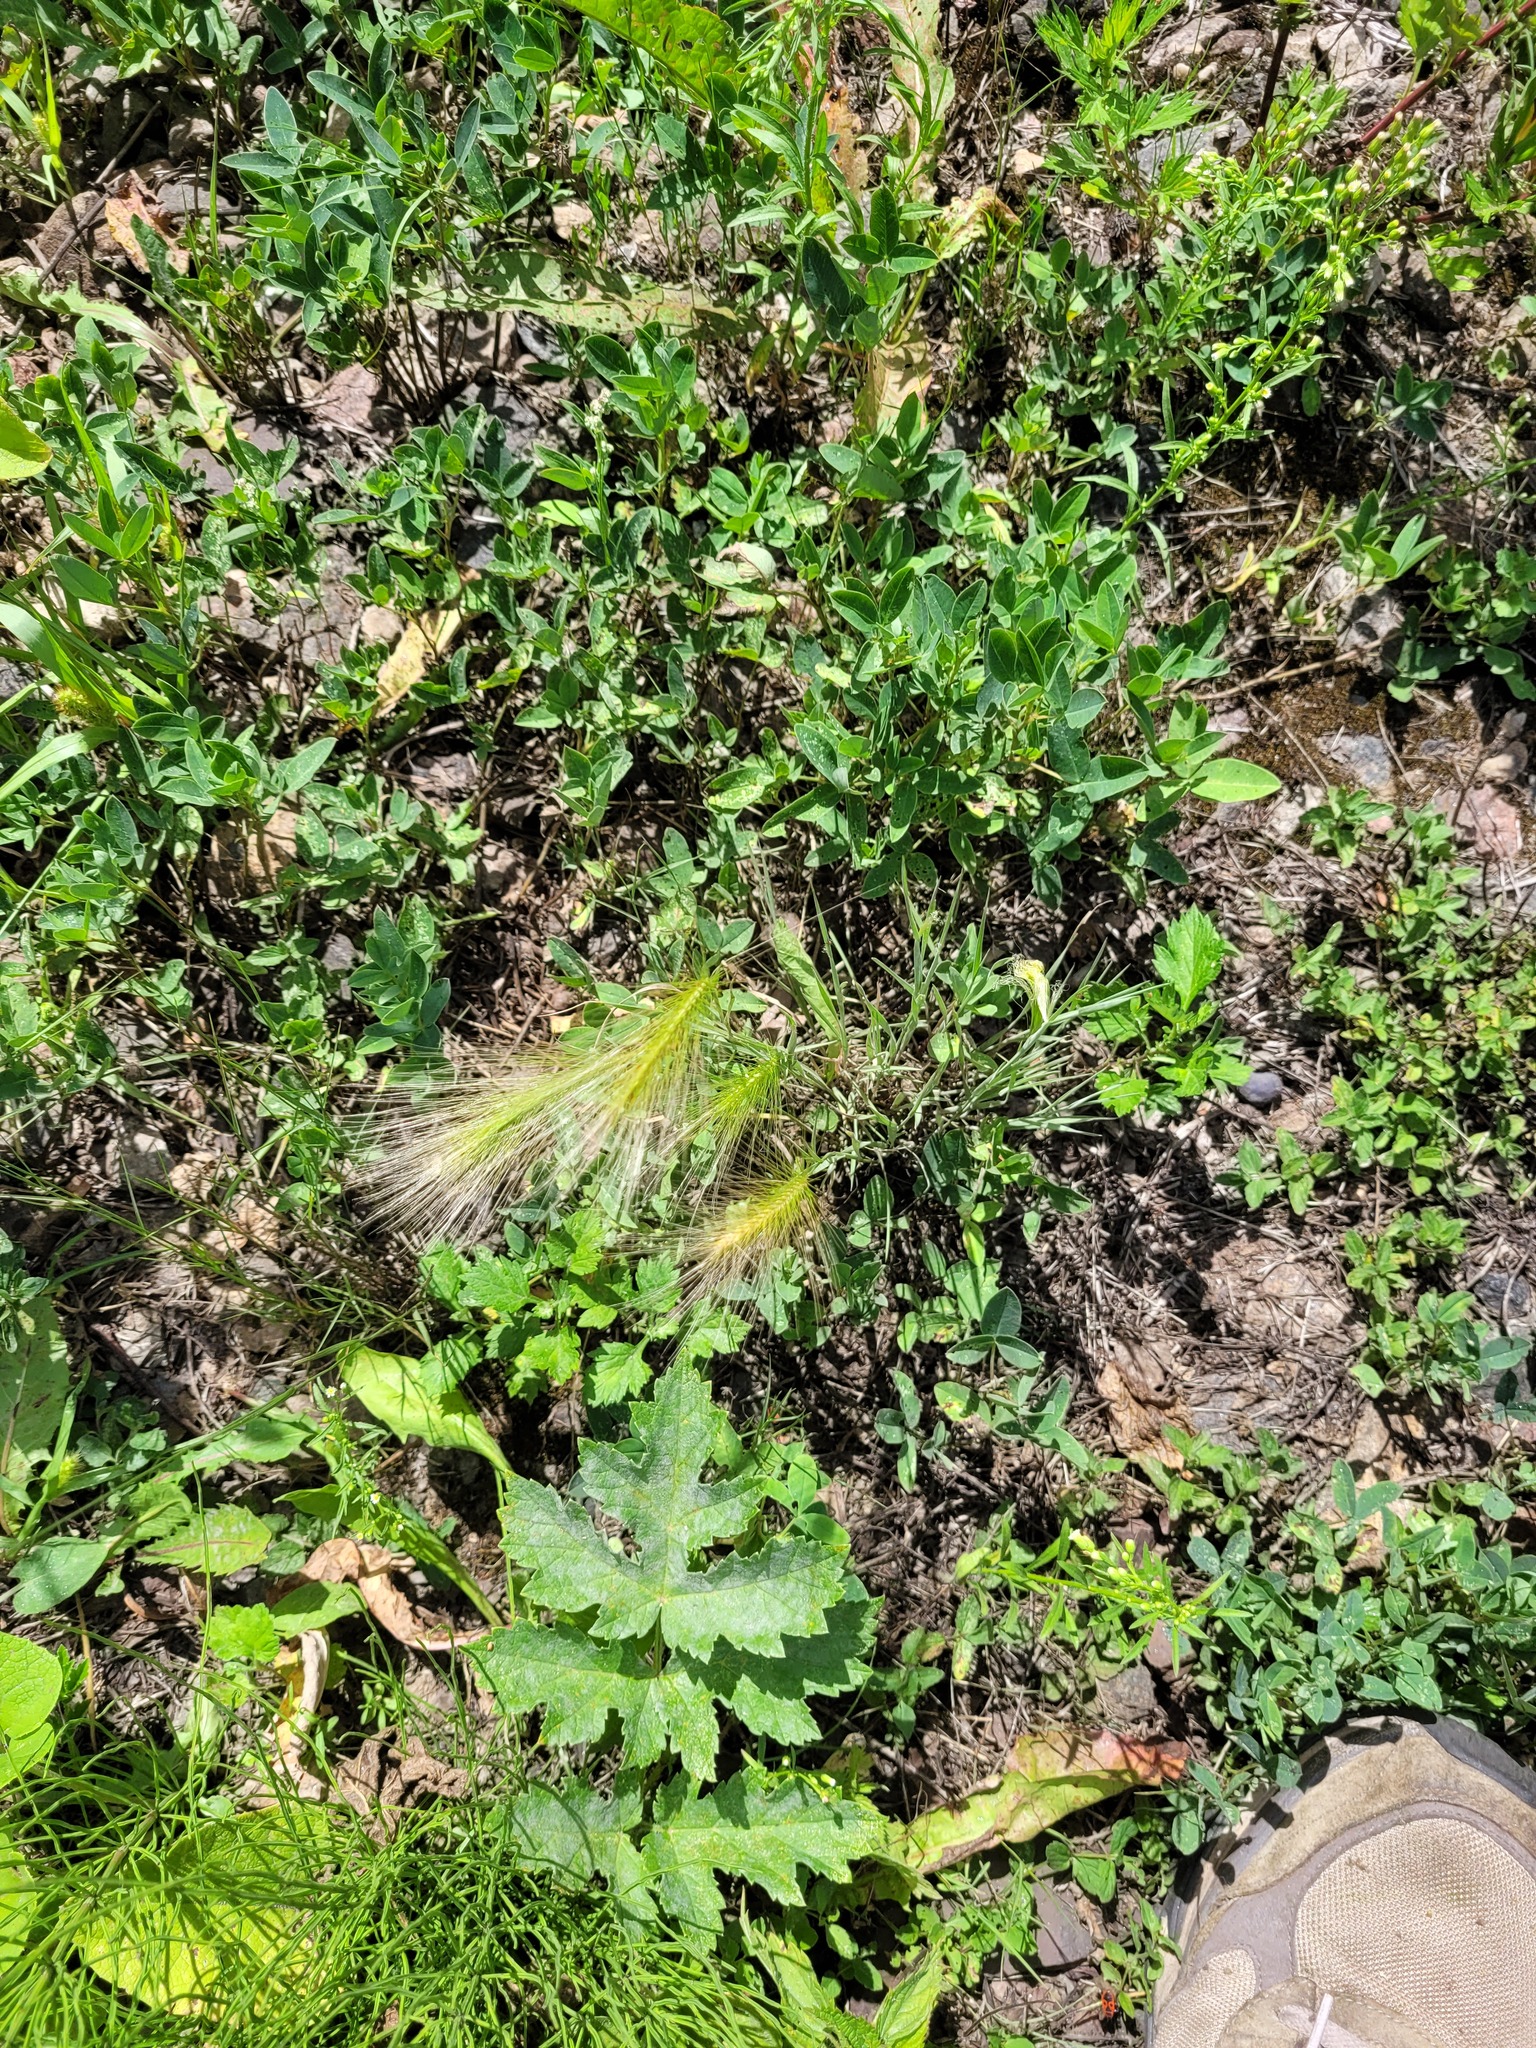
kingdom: Plantae
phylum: Tracheophyta
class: Liliopsida
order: Poales
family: Poaceae
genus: Hordeum
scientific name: Hordeum jubatum
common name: Foxtail barley
